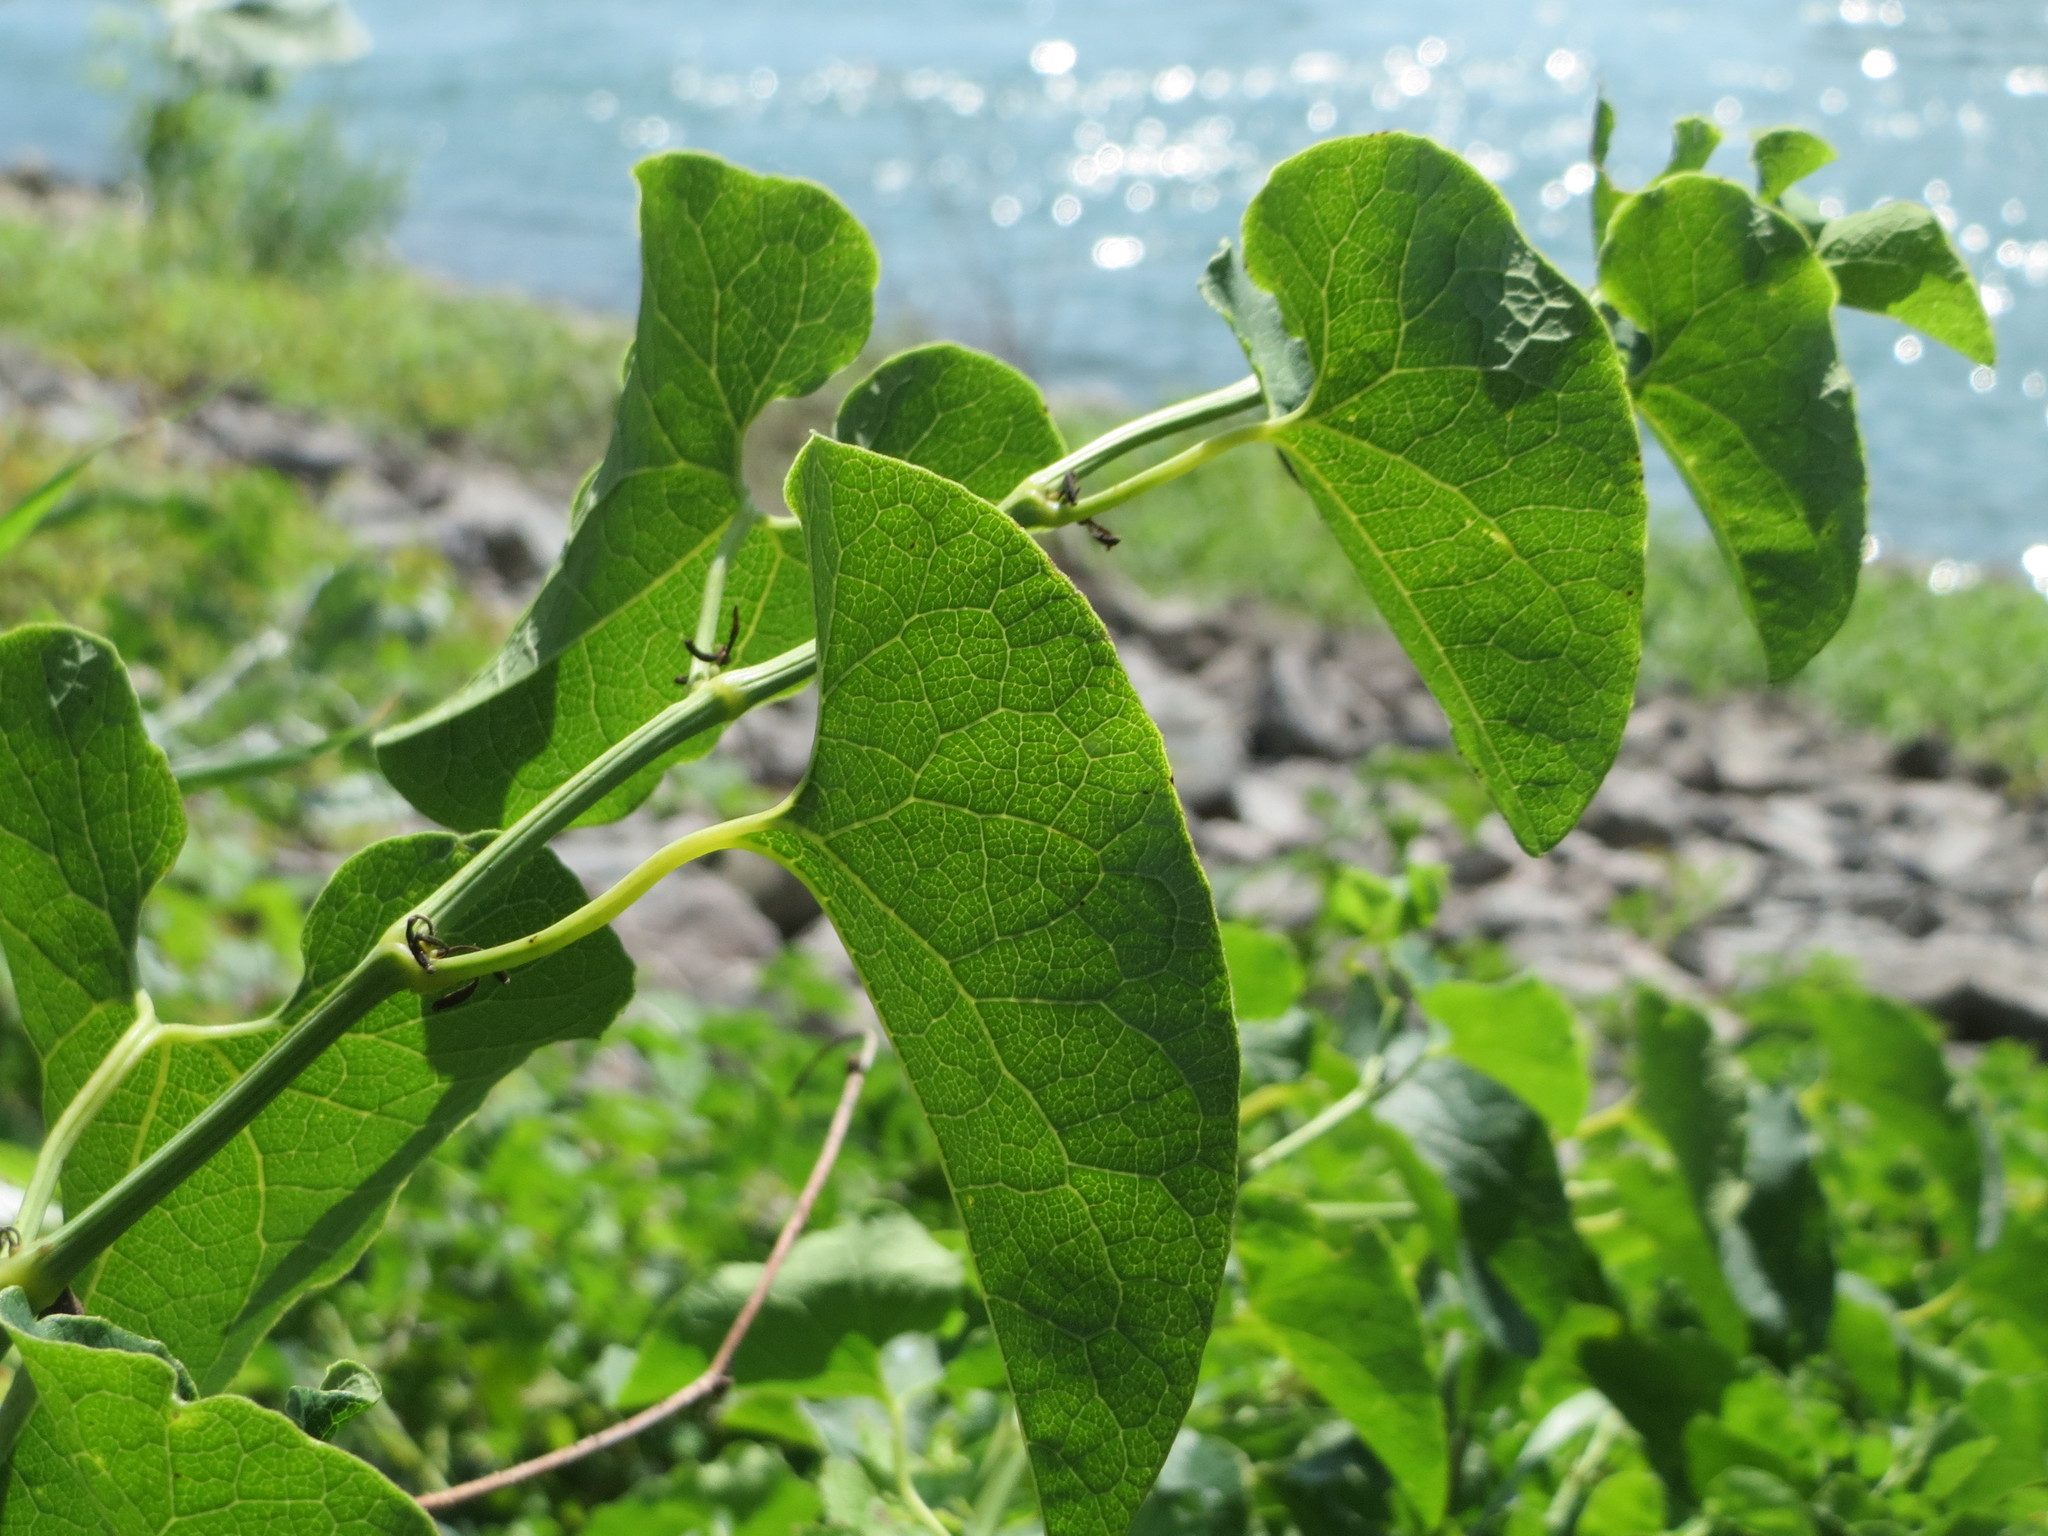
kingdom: Plantae
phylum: Tracheophyta
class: Magnoliopsida
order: Piperales
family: Aristolochiaceae
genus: Aristolochia
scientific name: Aristolochia clematitis
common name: Birthwort
